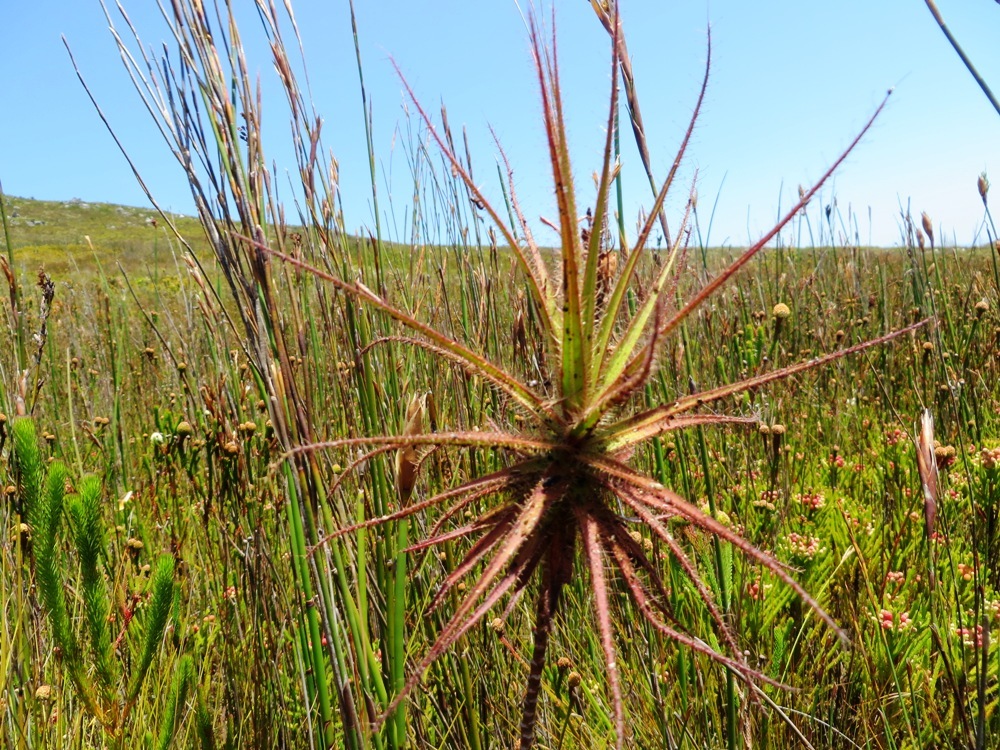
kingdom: Plantae
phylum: Tracheophyta
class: Magnoliopsida
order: Ericales
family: Roridulaceae
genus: Roridula
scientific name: Roridula gorgonias
